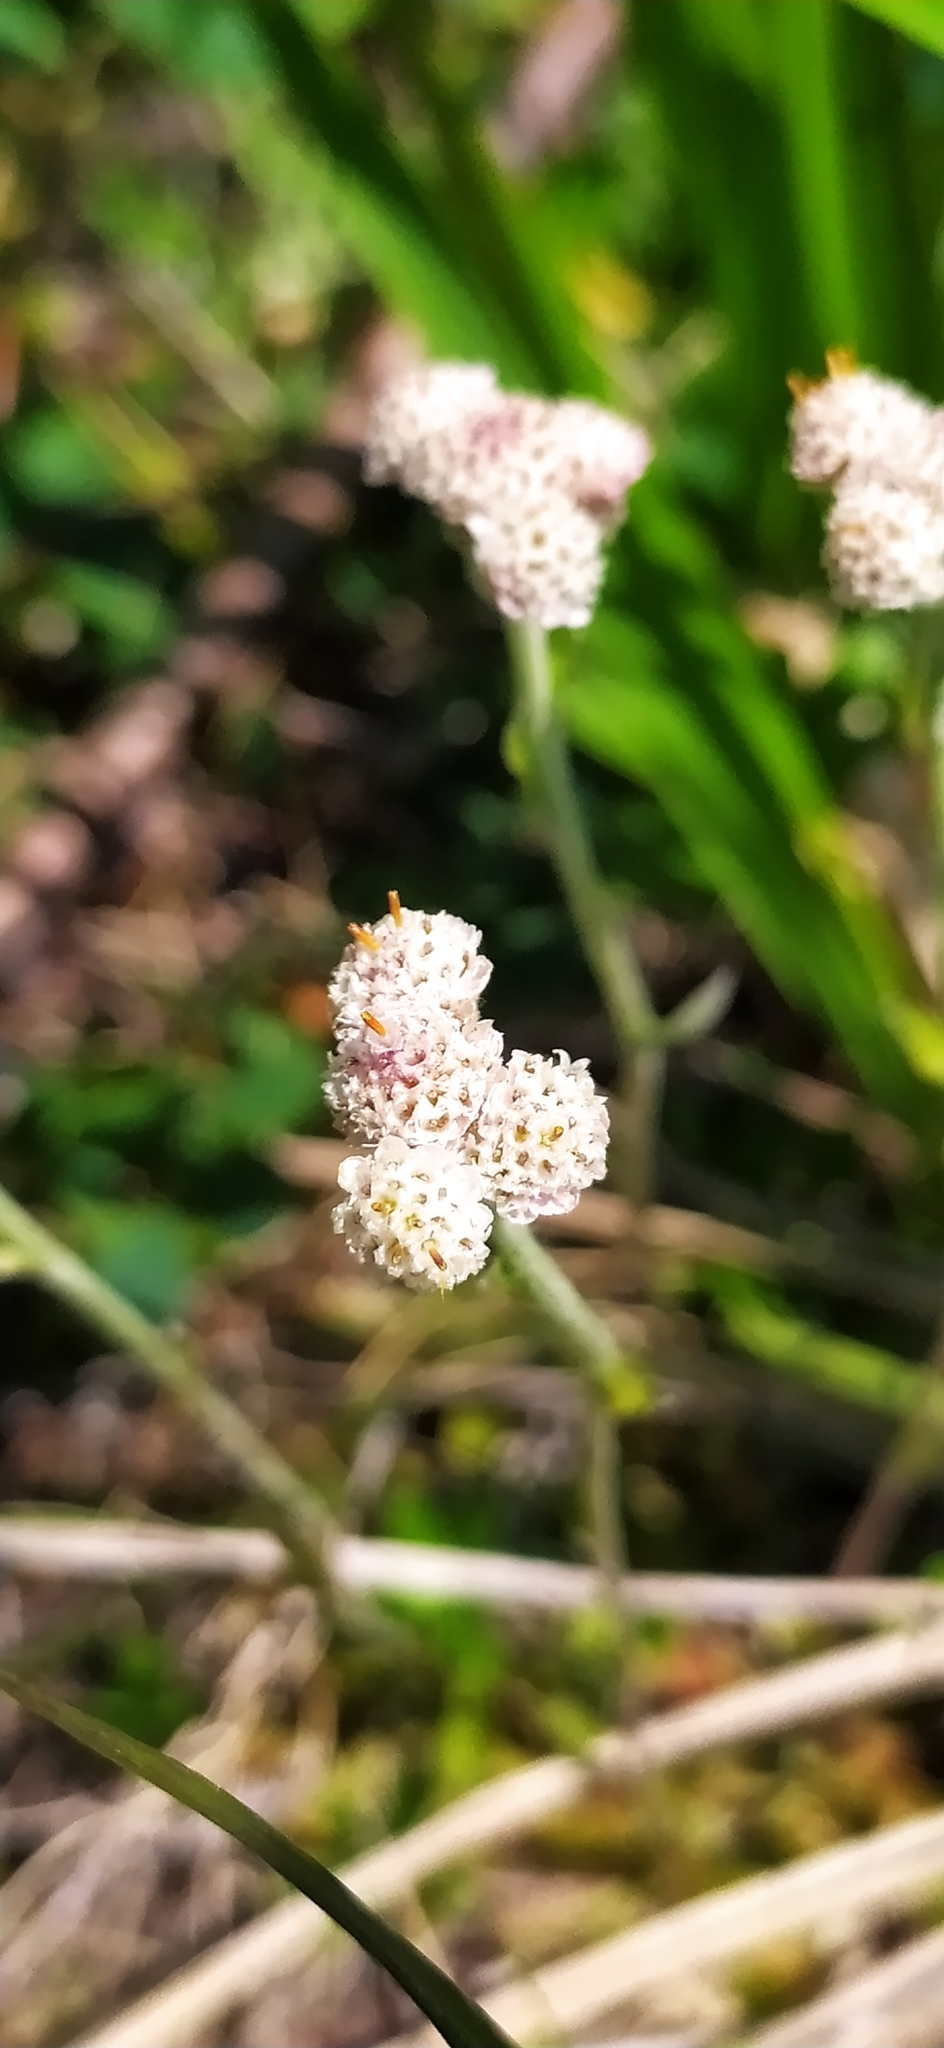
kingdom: Plantae
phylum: Tracheophyta
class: Magnoliopsida
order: Asterales
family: Asteraceae
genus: Antennaria
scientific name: Antennaria dioica
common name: Mountain everlasting
